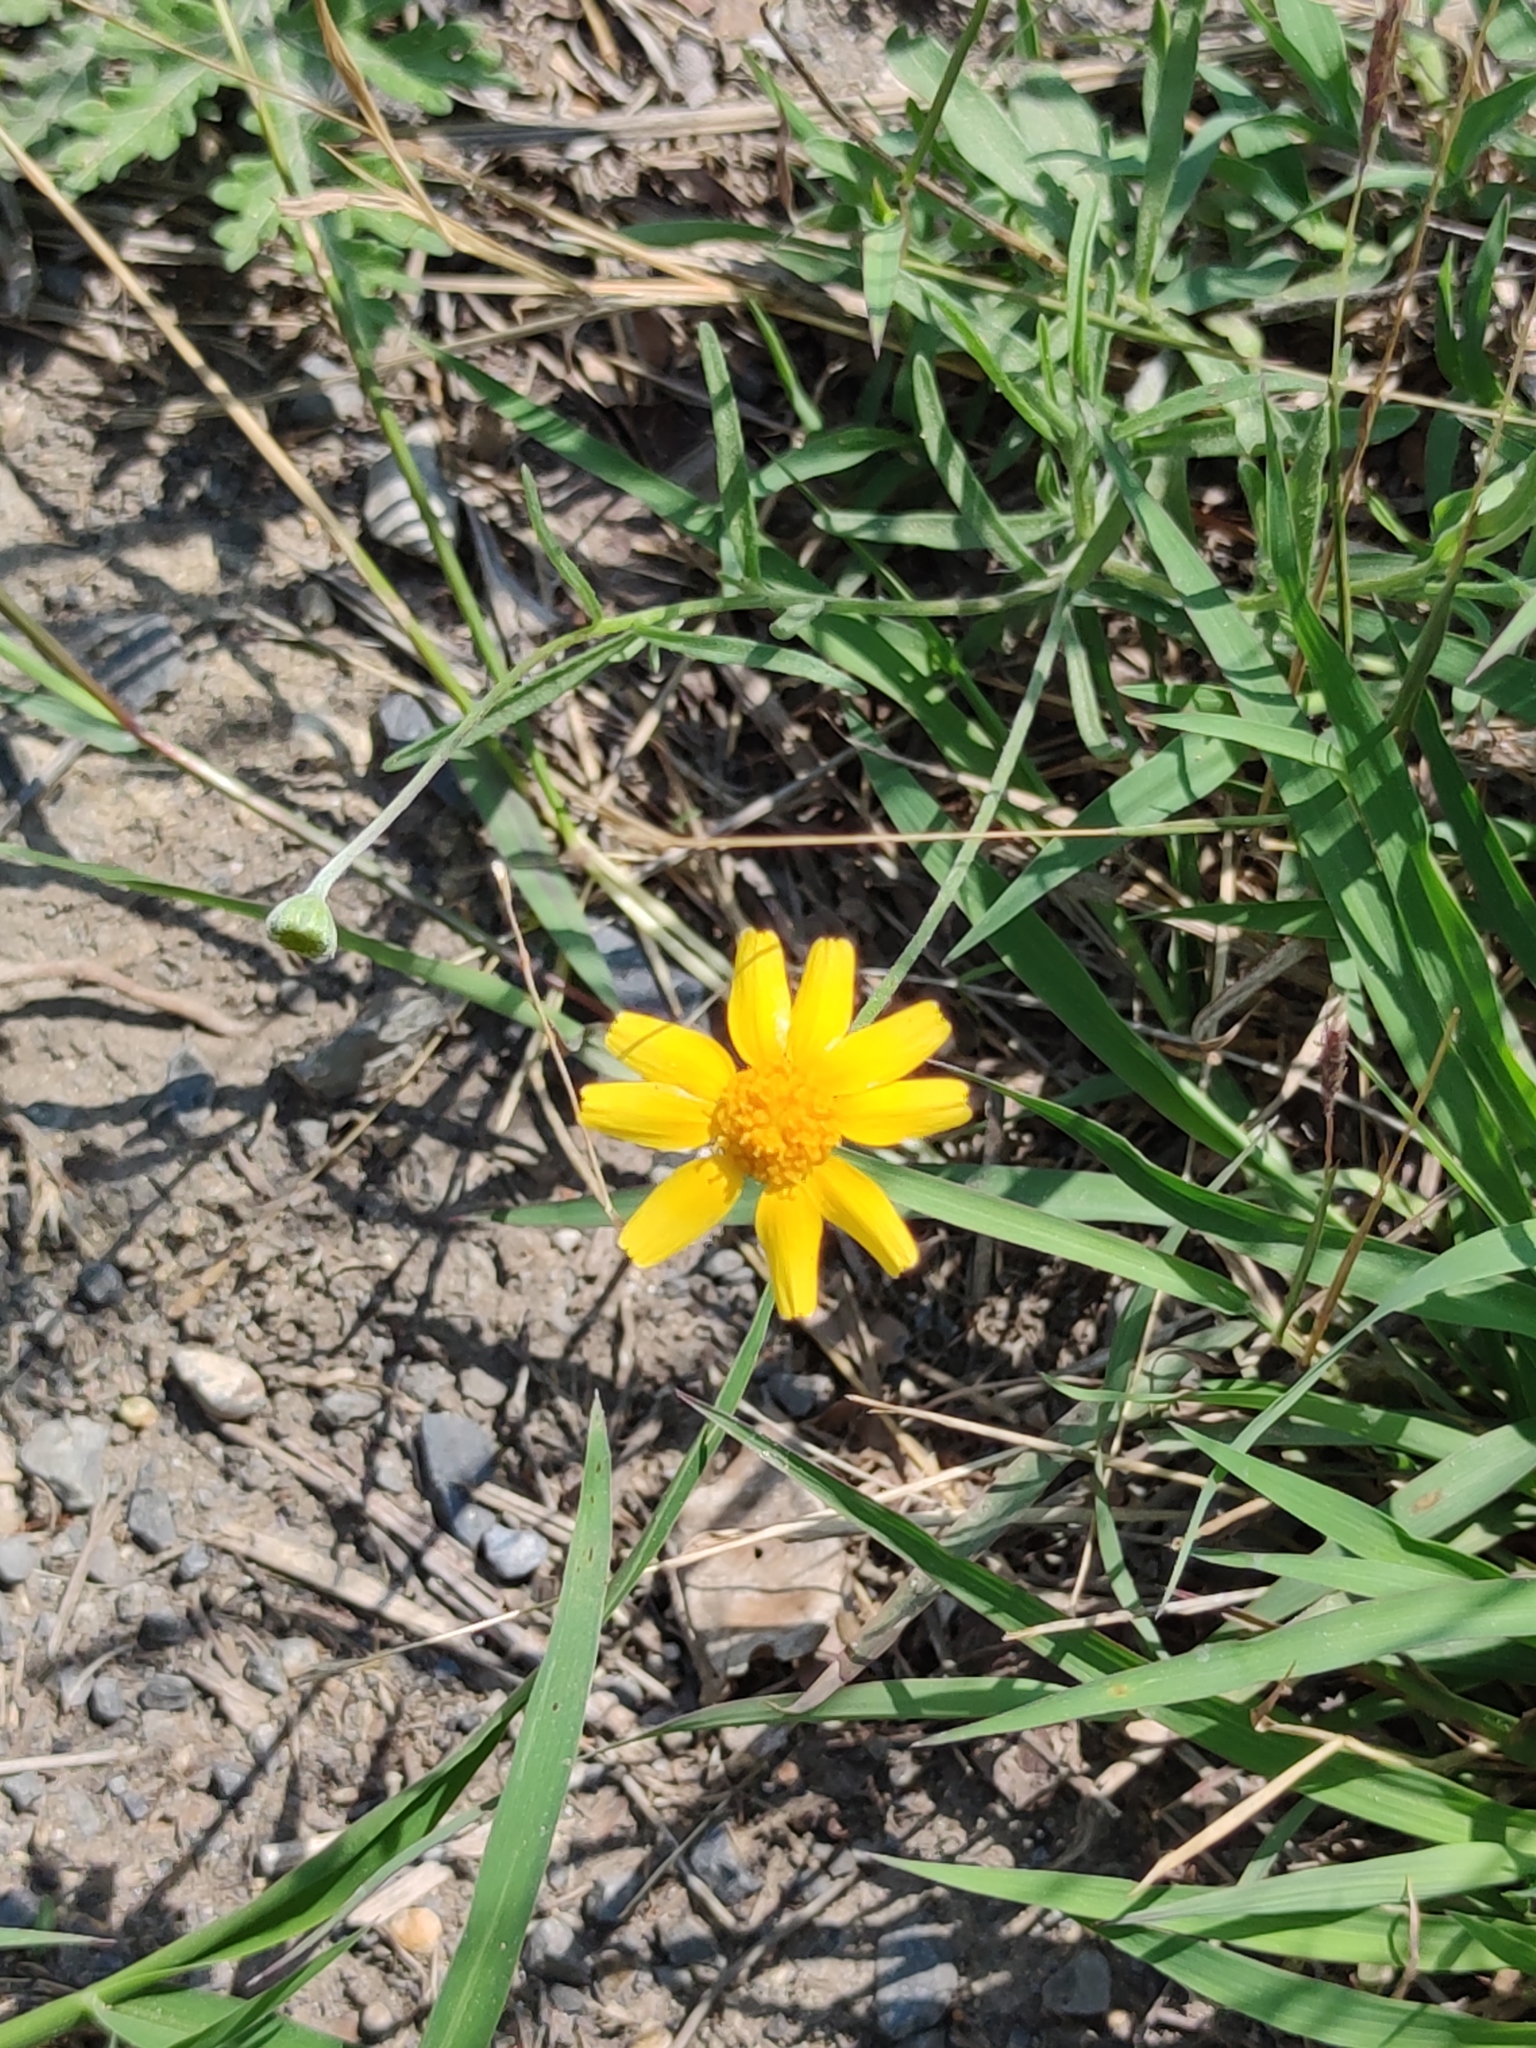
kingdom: Plantae
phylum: Tracheophyta
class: Magnoliopsida
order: Asterales
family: Asteraceae
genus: Tetraneuris
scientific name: Tetraneuris linearifolia
